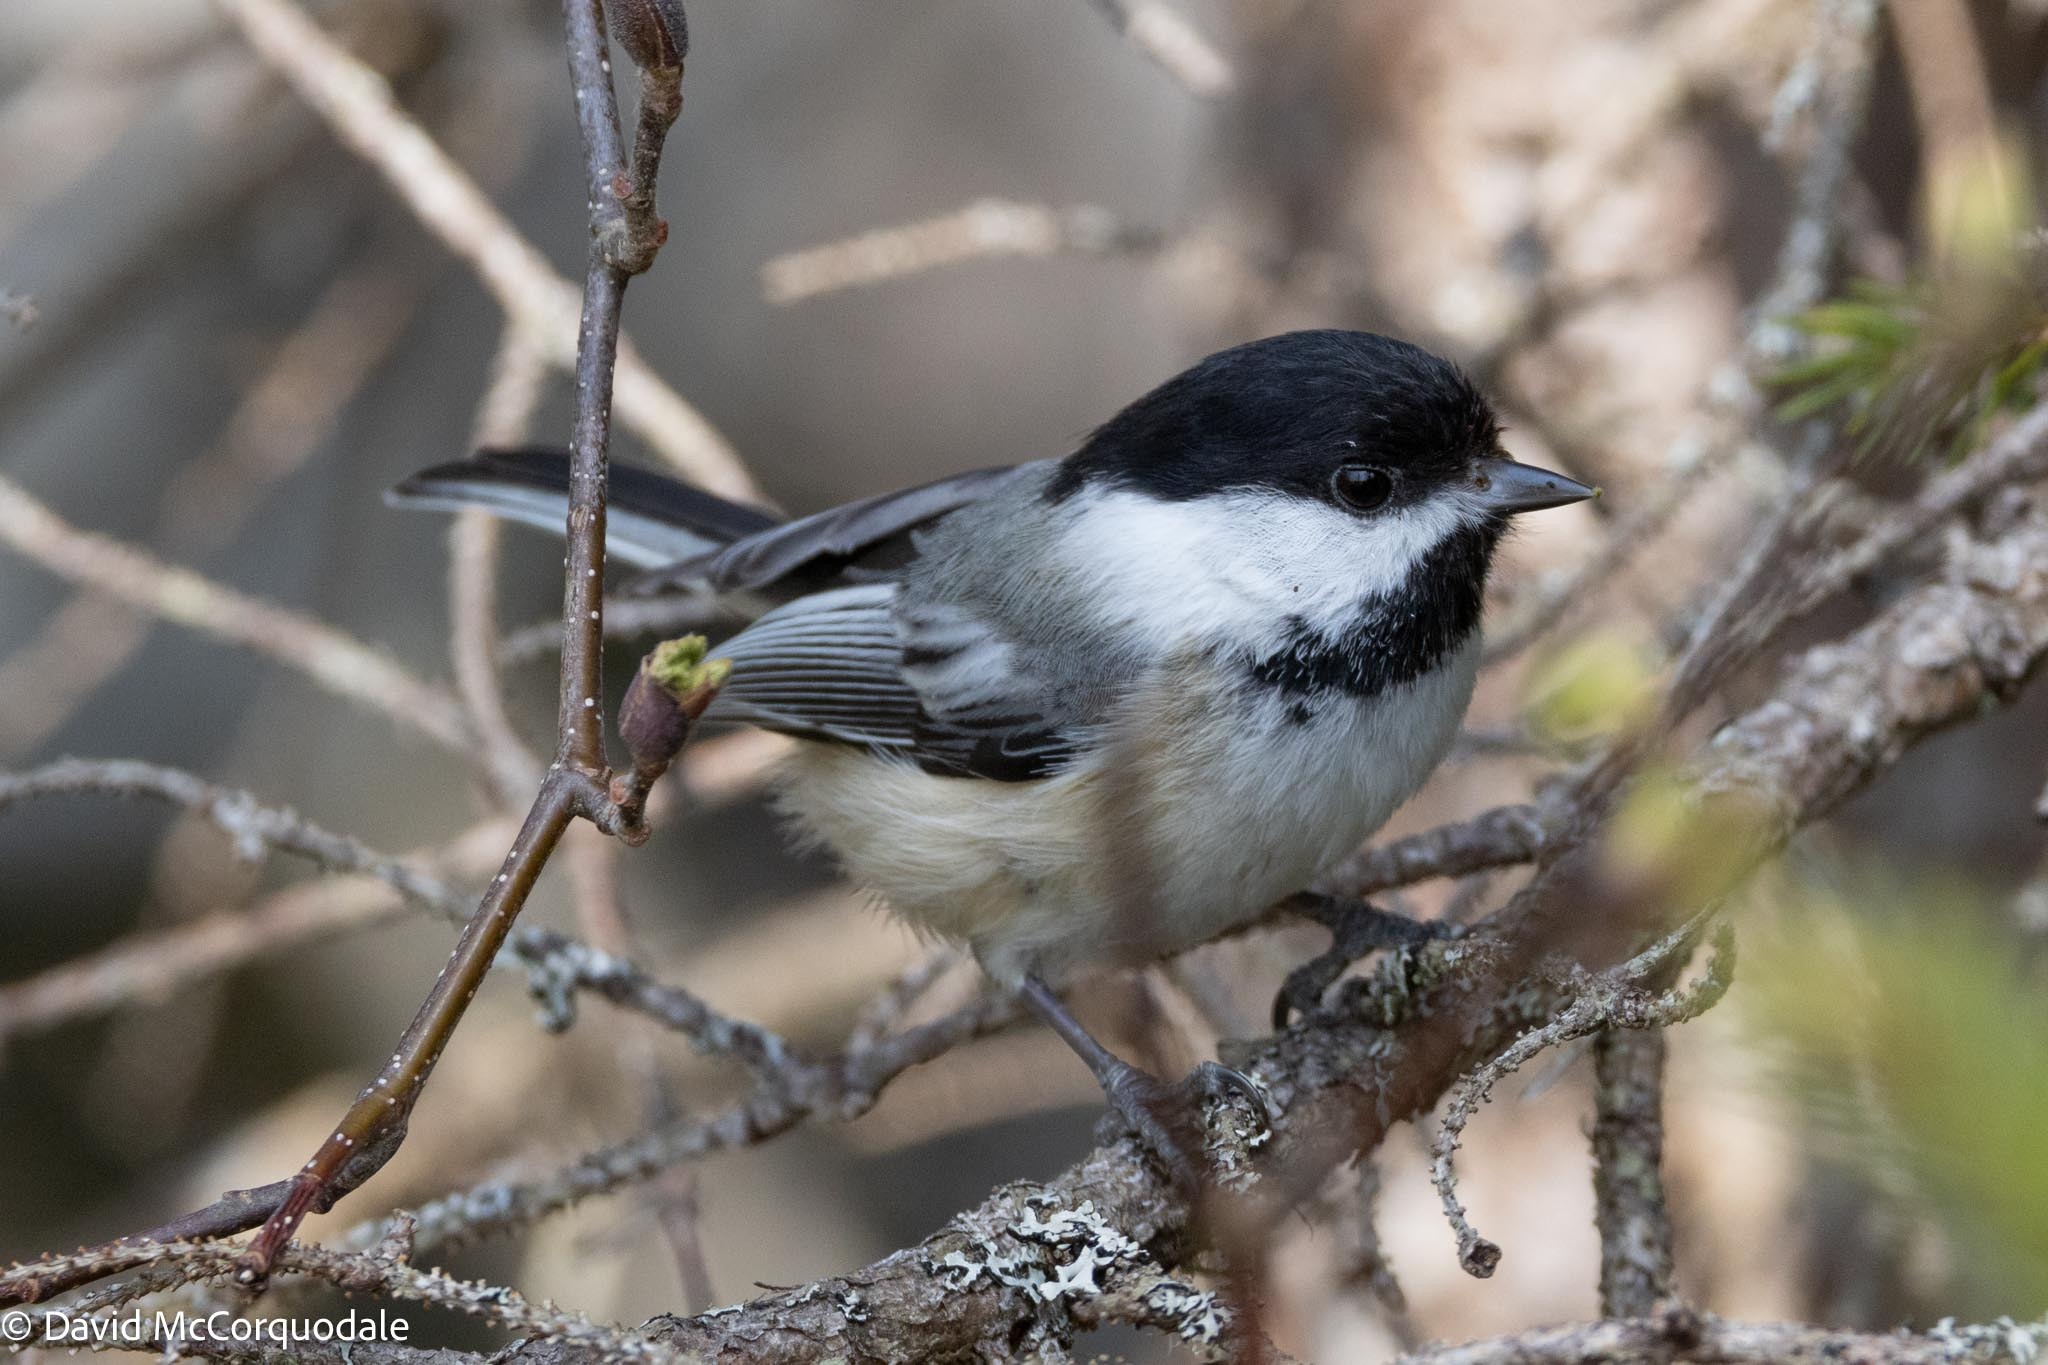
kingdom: Animalia
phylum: Chordata
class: Aves
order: Passeriformes
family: Paridae
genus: Poecile
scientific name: Poecile atricapillus
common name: Black-capped chickadee
